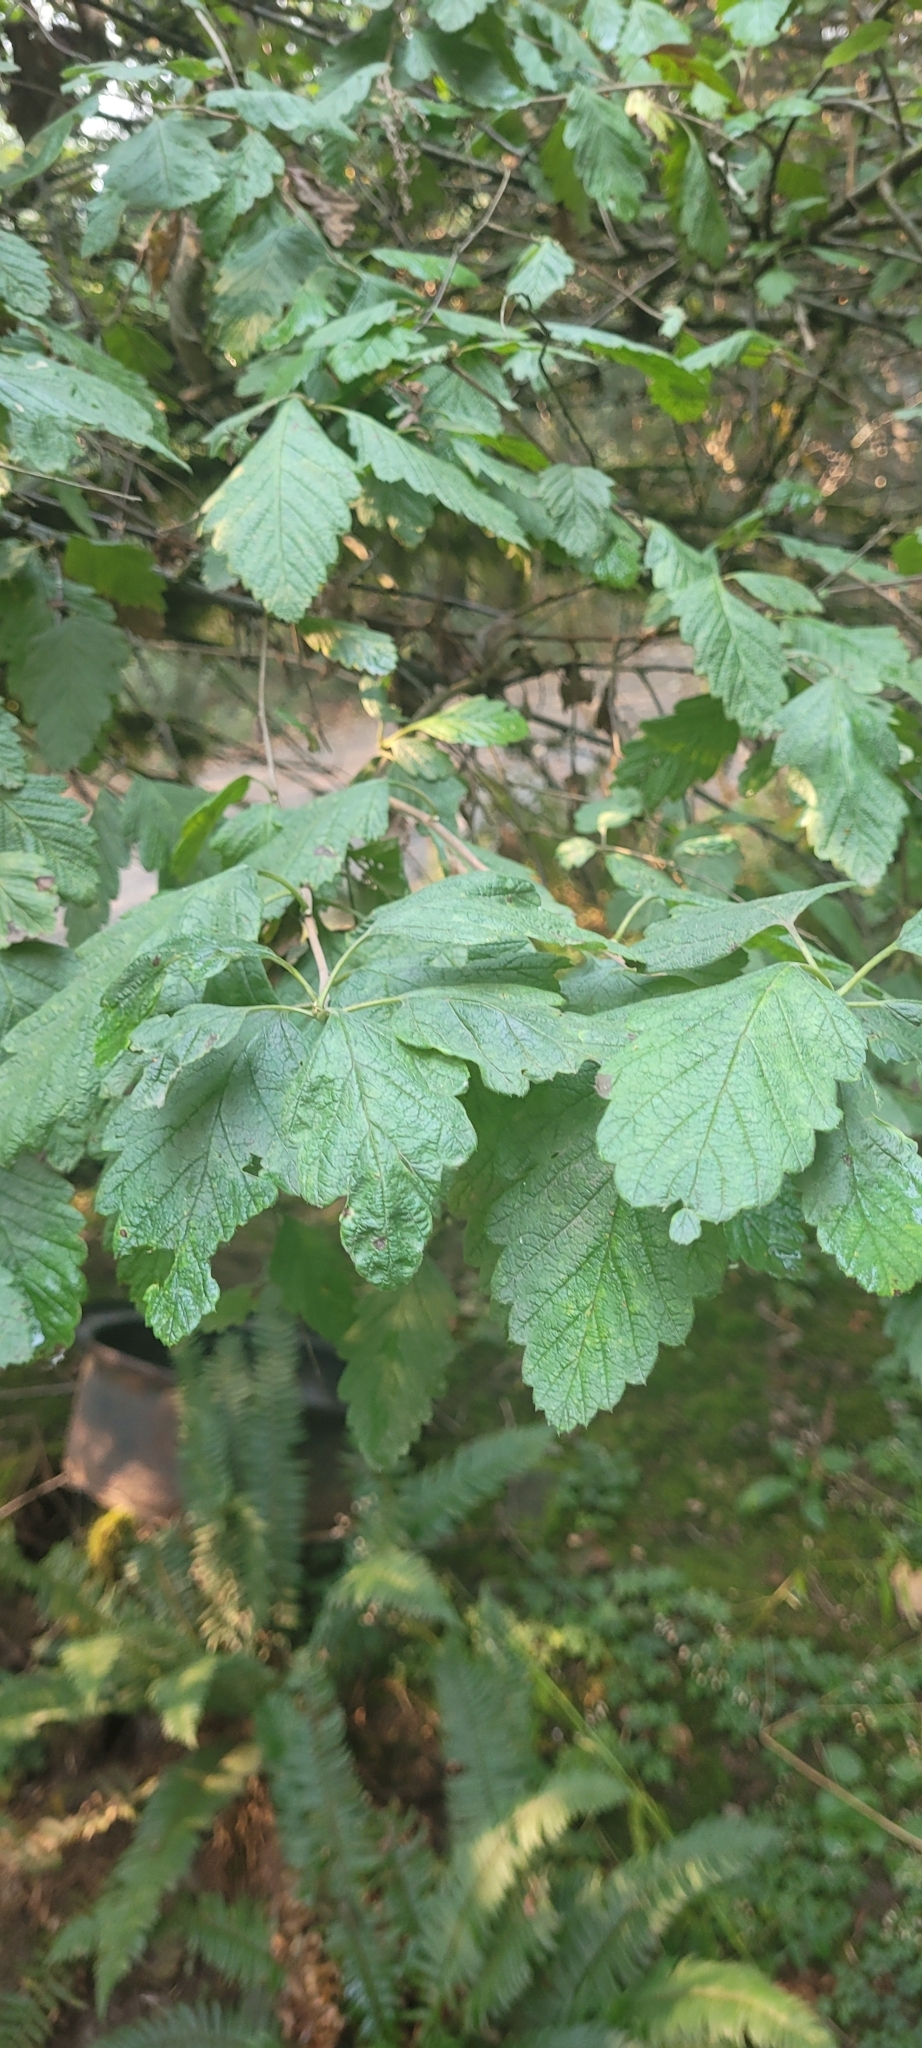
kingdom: Plantae
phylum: Tracheophyta
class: Magnoliopsida
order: Rosales
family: Rosaceae
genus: Holodiscus
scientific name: Holodiscus discolor
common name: Oceanspray
